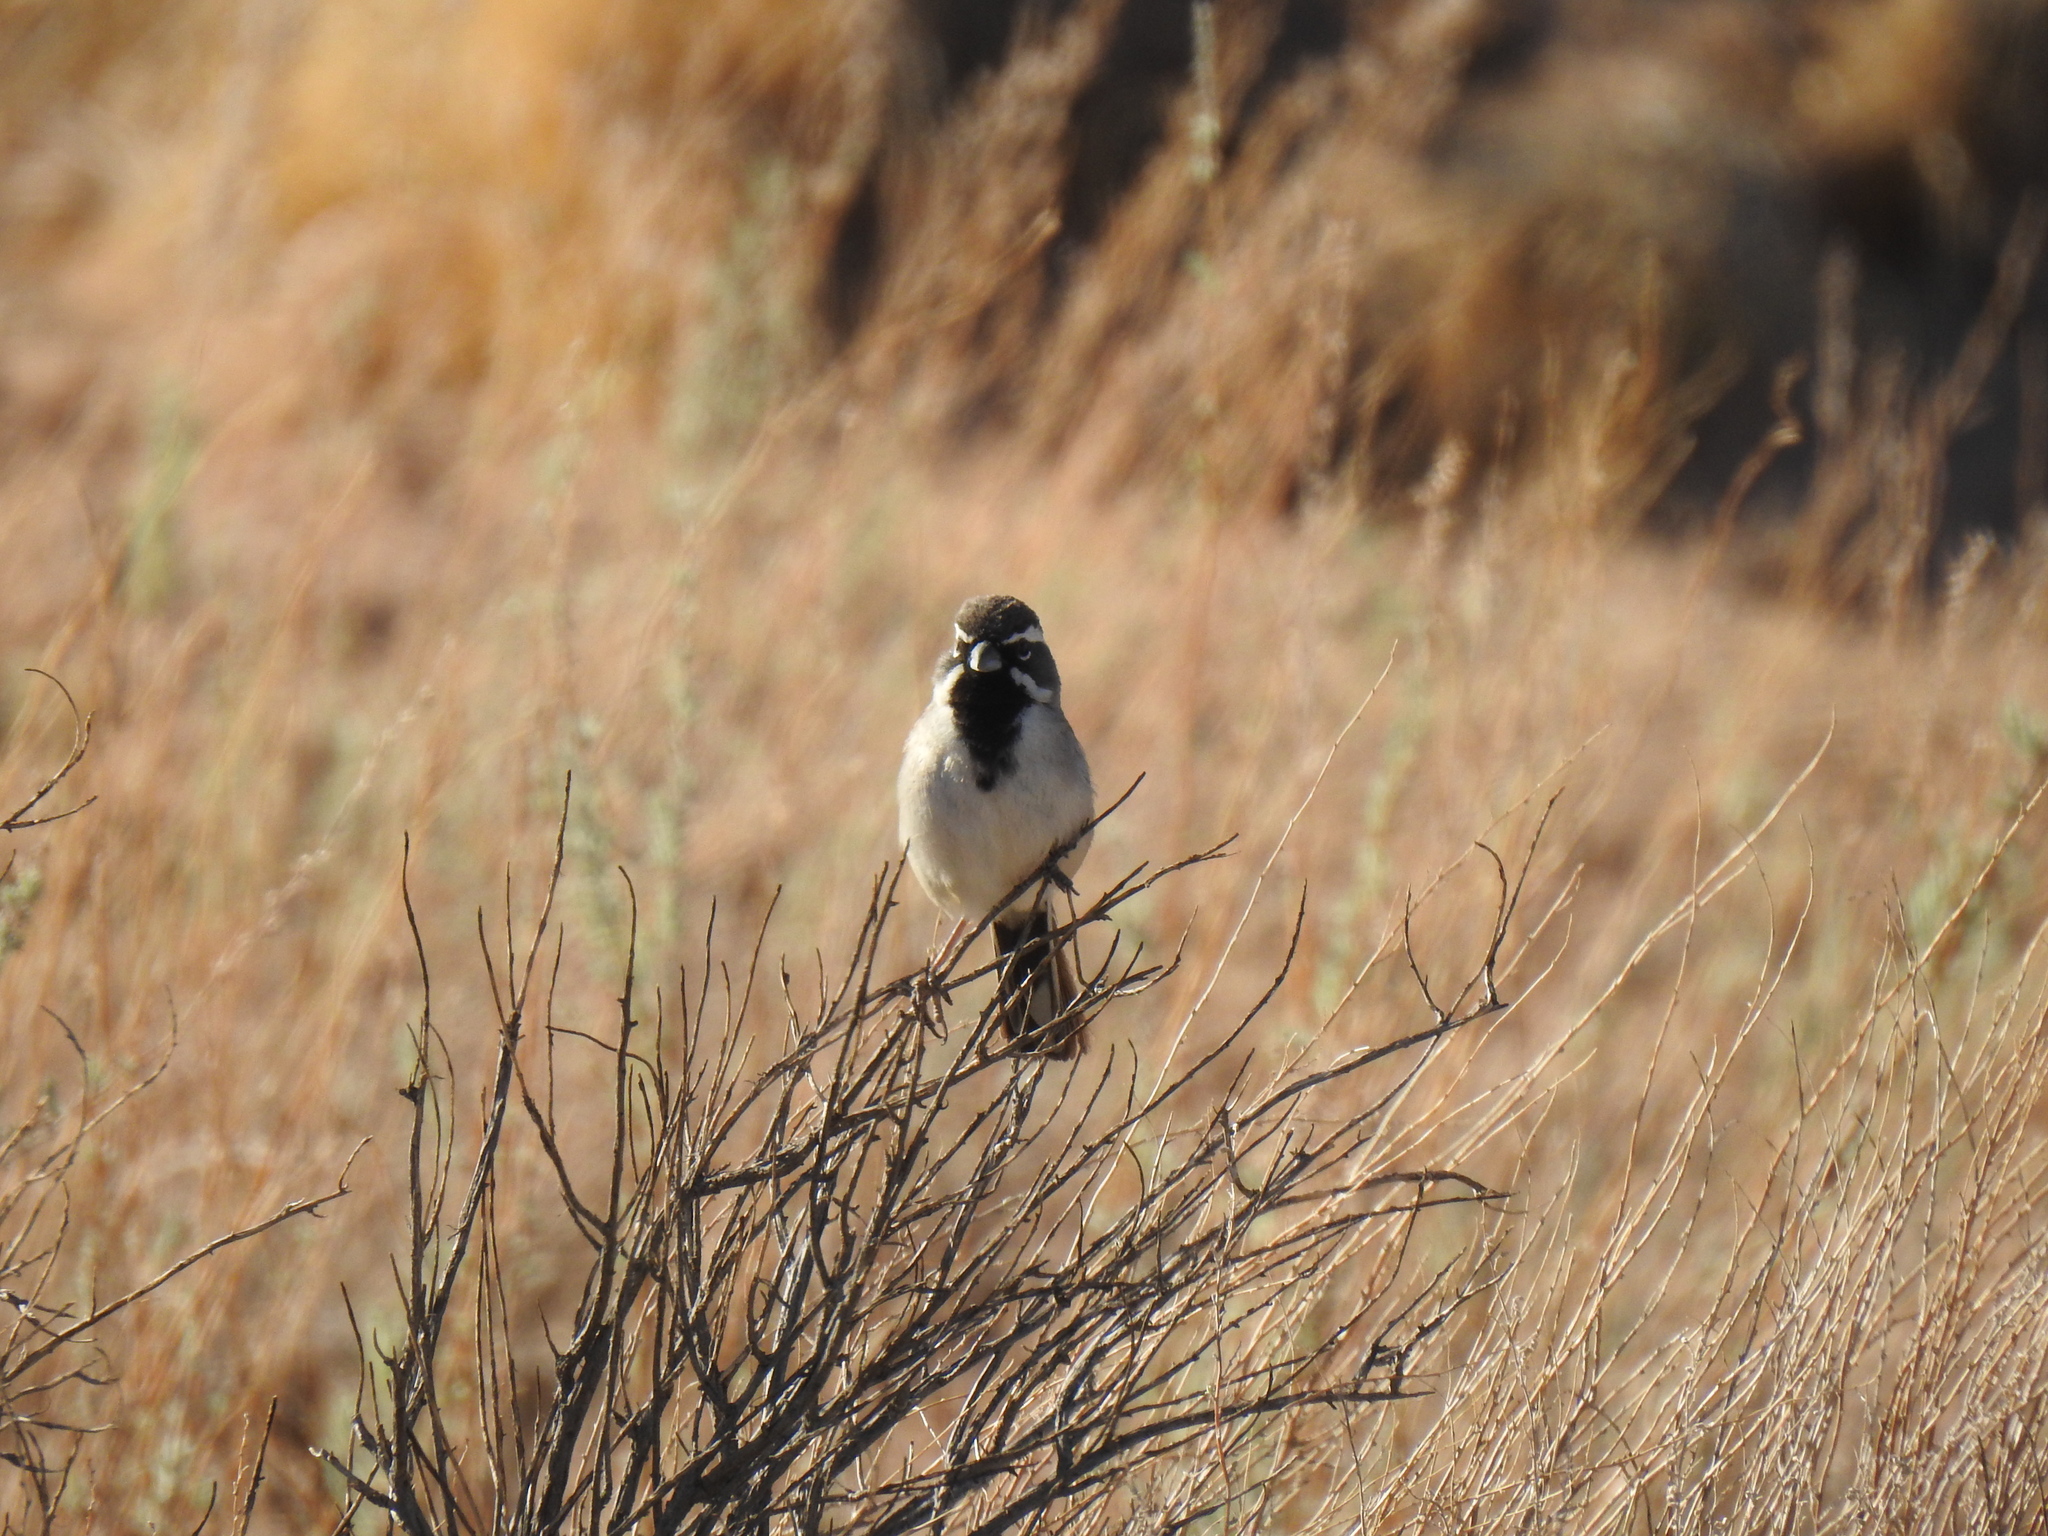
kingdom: Animalia
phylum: Chordata
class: Aves
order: Passeriformes
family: Passerellidae
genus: Amphispiza
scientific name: Amphispiza bilineata
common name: Black-throated sparrow
